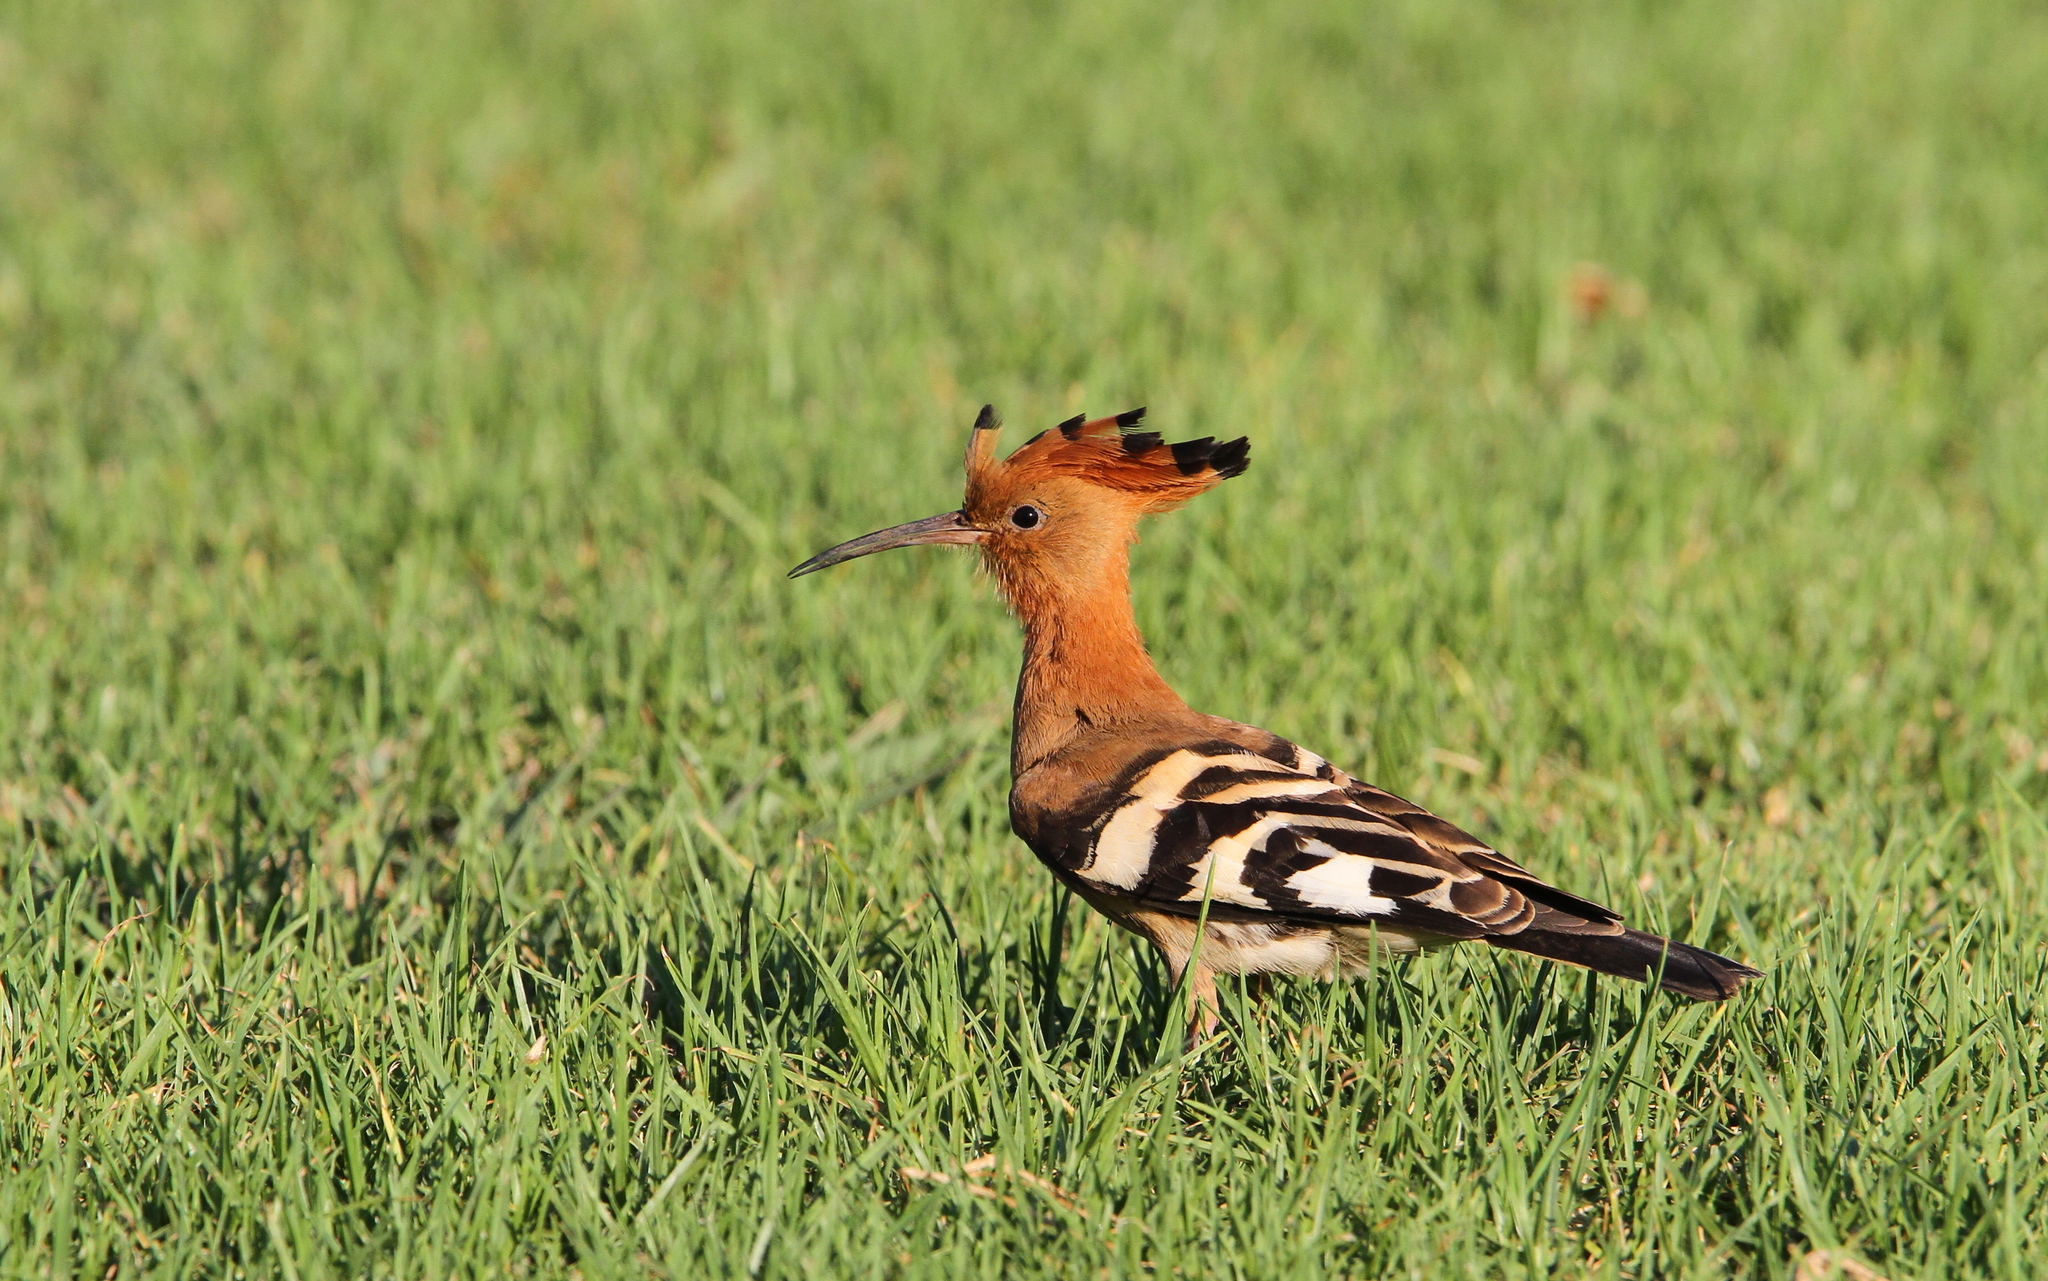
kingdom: Animalia
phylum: Chordata
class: Aves
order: Bucerotiformes
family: Upupidae
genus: Upupa
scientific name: Upupa africana
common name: African hoopoe
